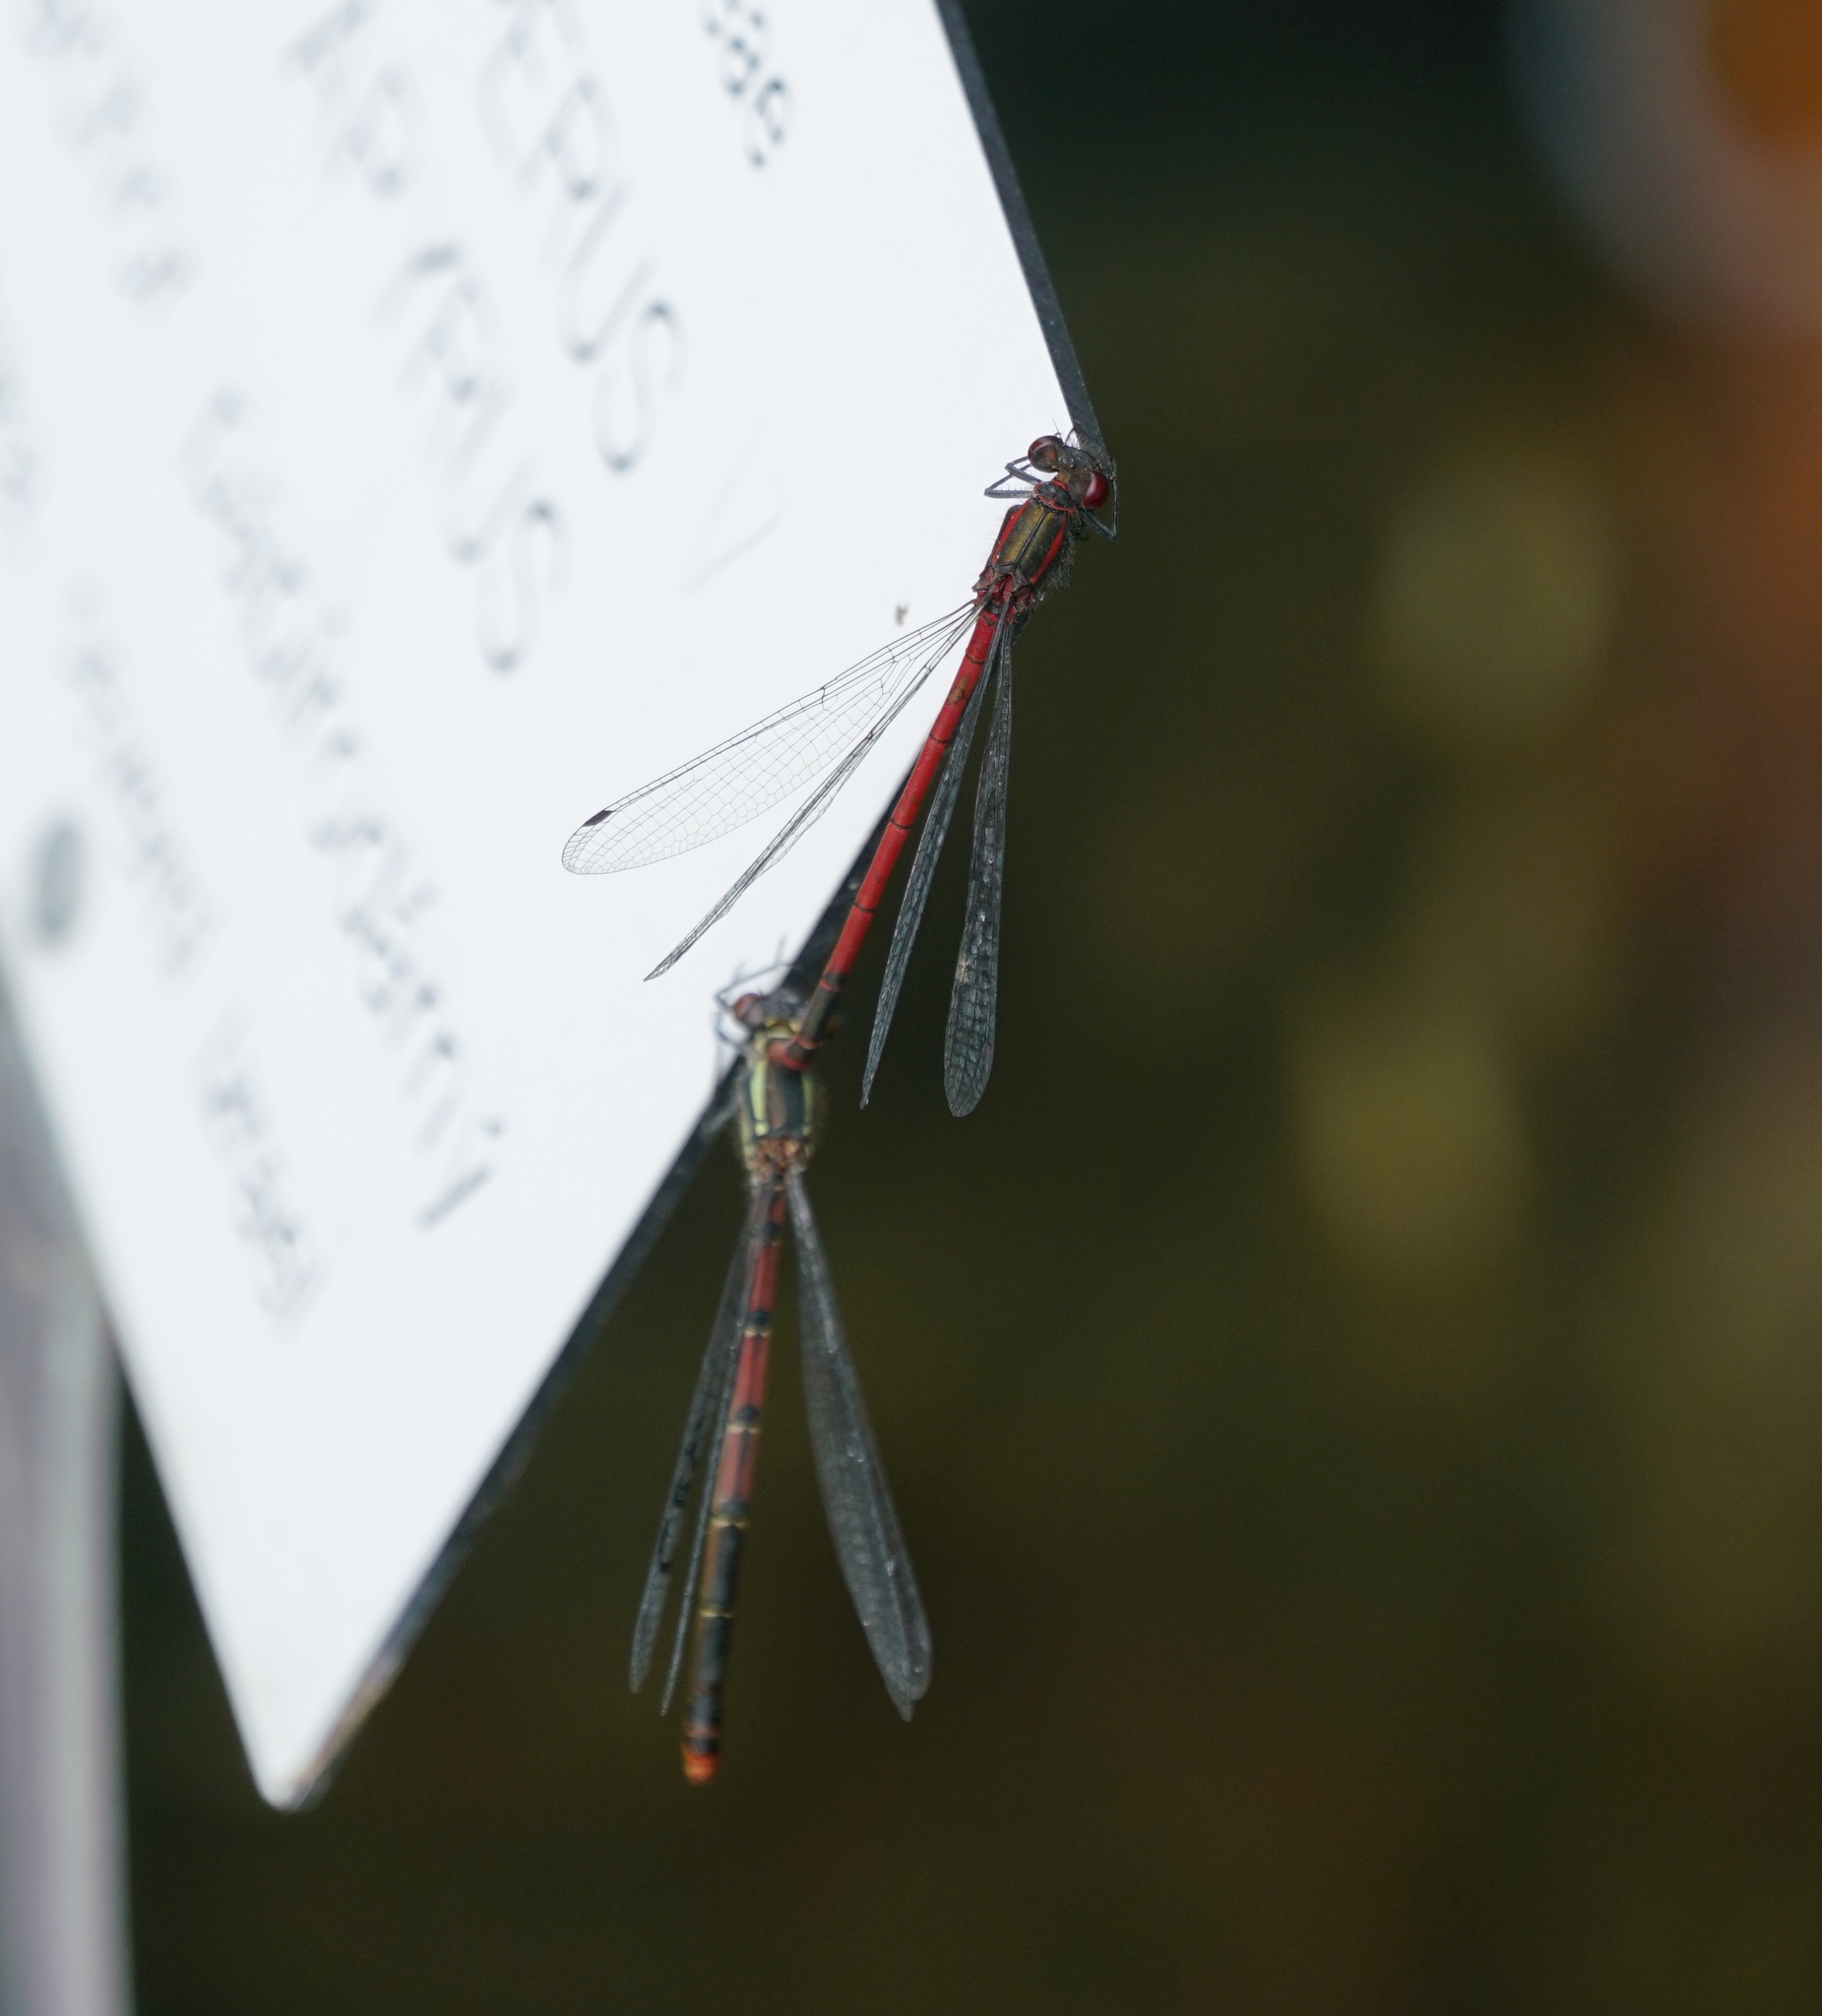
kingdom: Animalia
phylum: Arthropoda
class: Insecta
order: Odonata
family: Coenagrionidae
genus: Pyrrhosoma
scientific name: Pyrrhosoma nymphula
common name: Large red damsel
